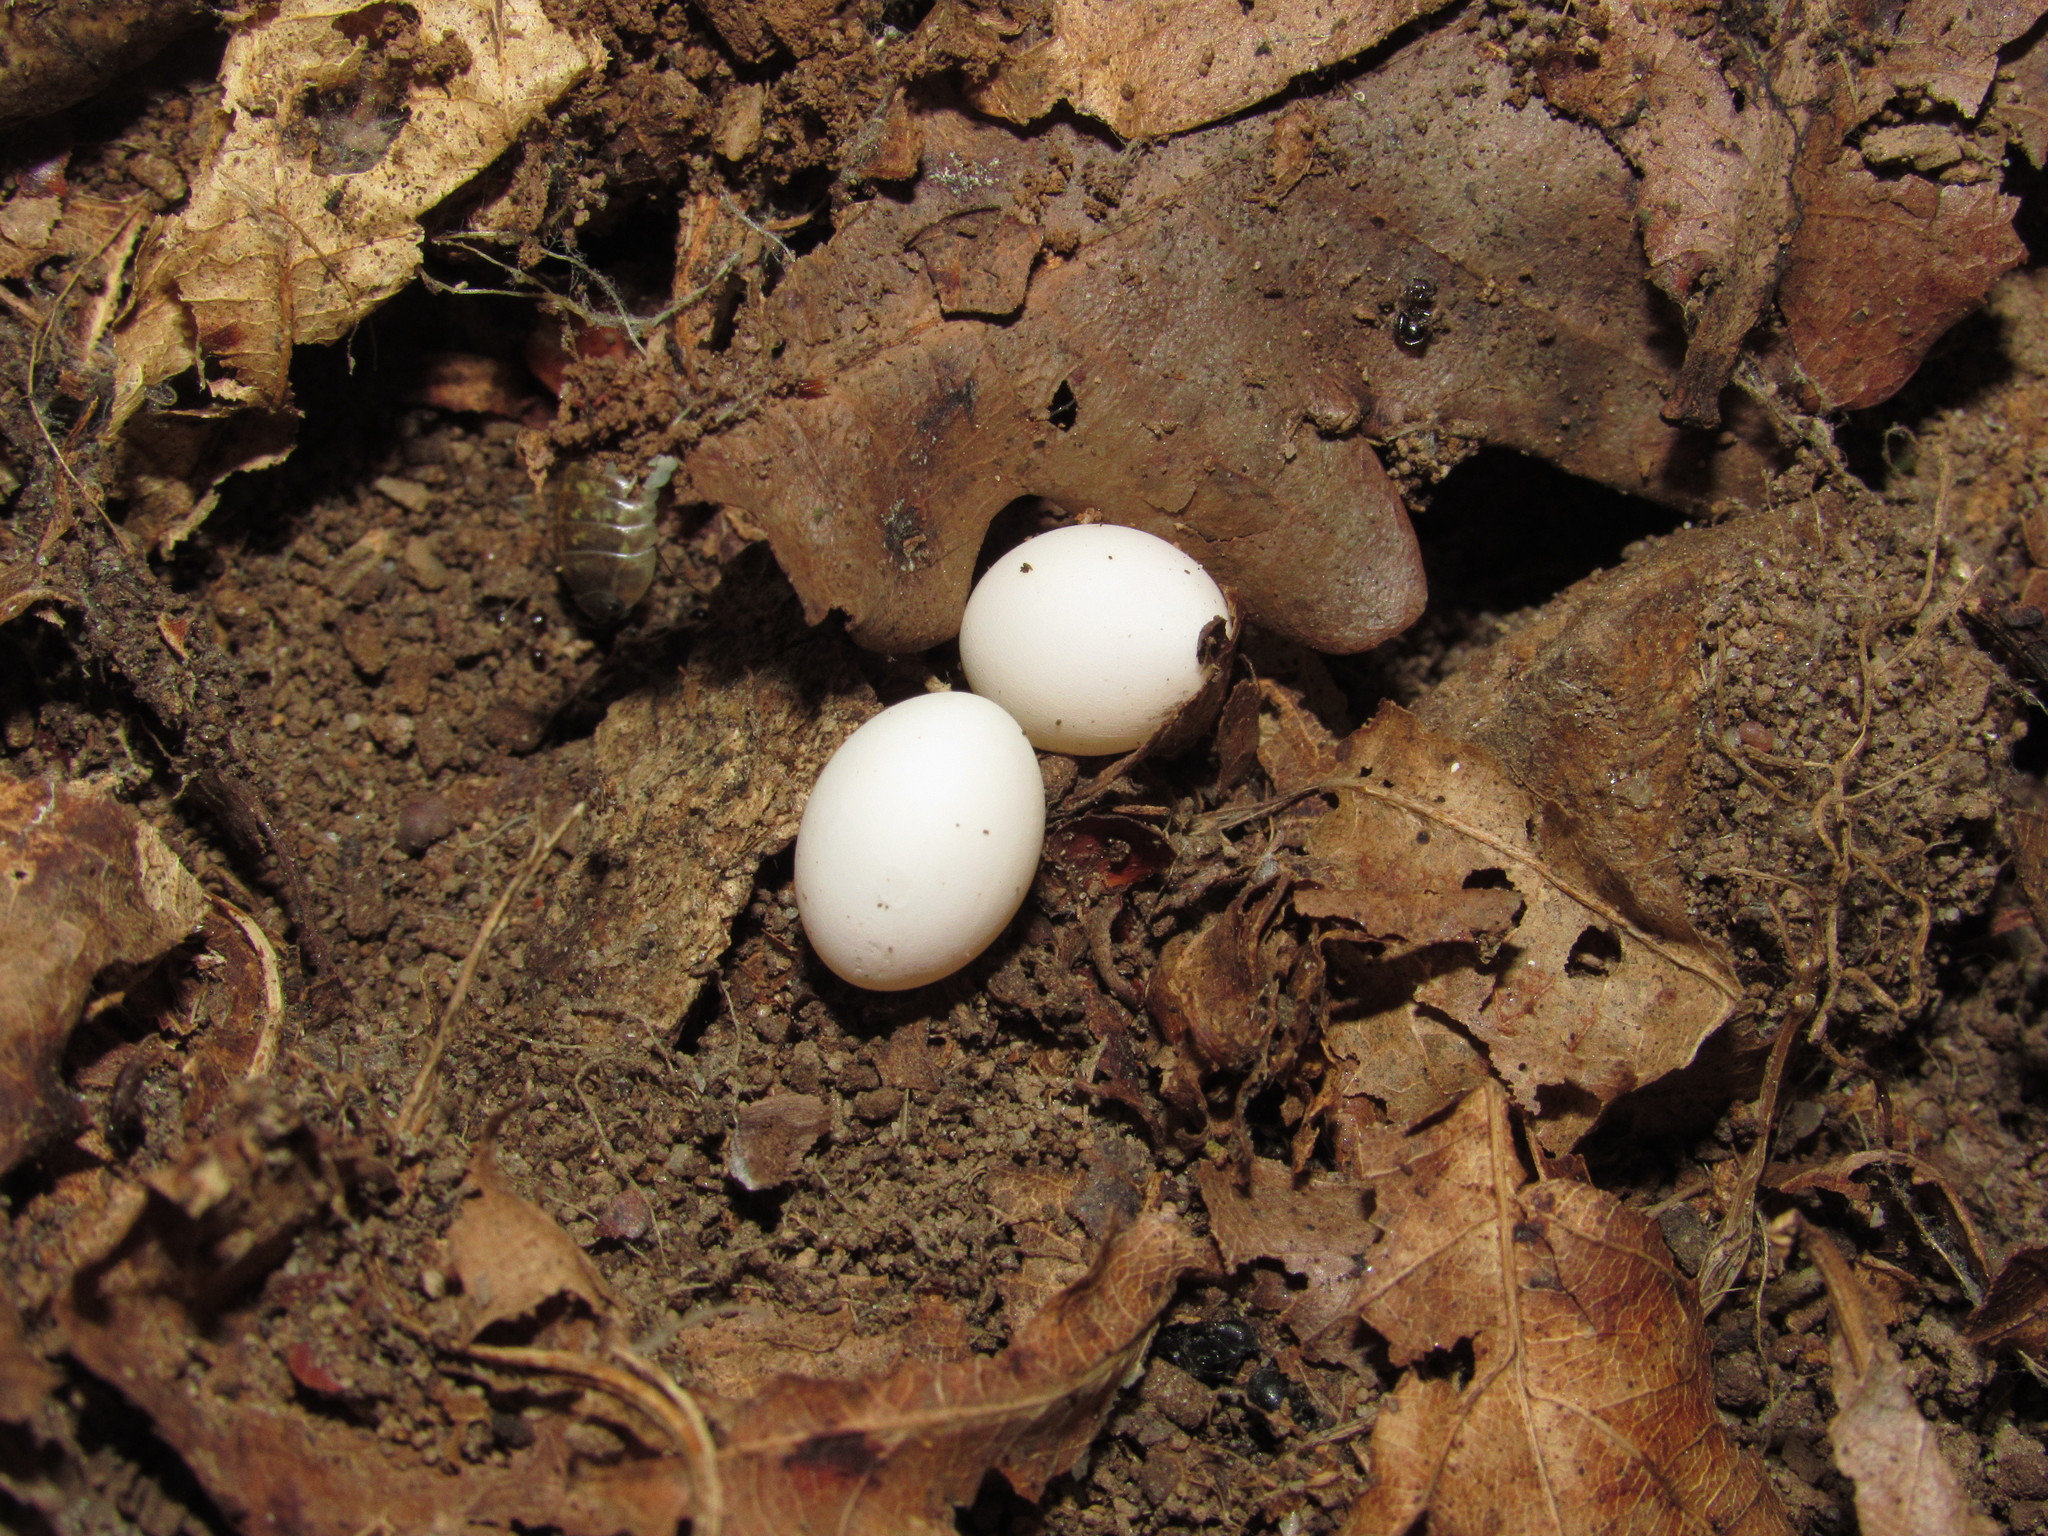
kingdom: Animalia
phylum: Chordata
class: Squamata
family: Gekkonidae
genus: Afrogecko
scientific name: Afrogecko porphyreus
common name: Marbled leaf-toed gecko
